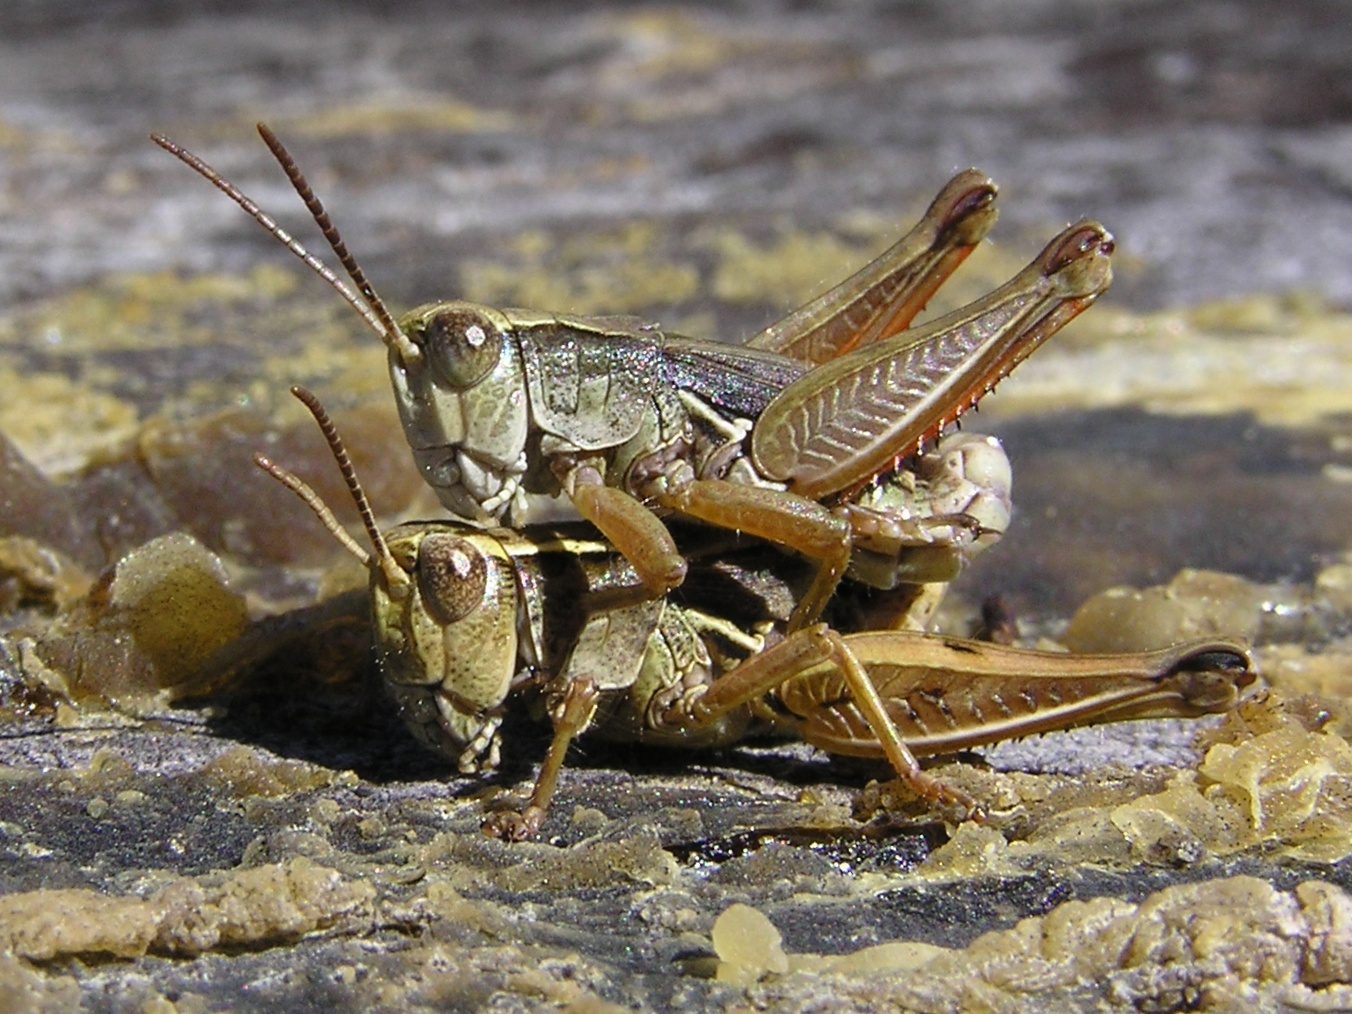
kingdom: Animalia
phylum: Arthropoda
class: Insecta
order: Orthoptera
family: Acrididae
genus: Phaulacridium
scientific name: Phaulacridium marginale
